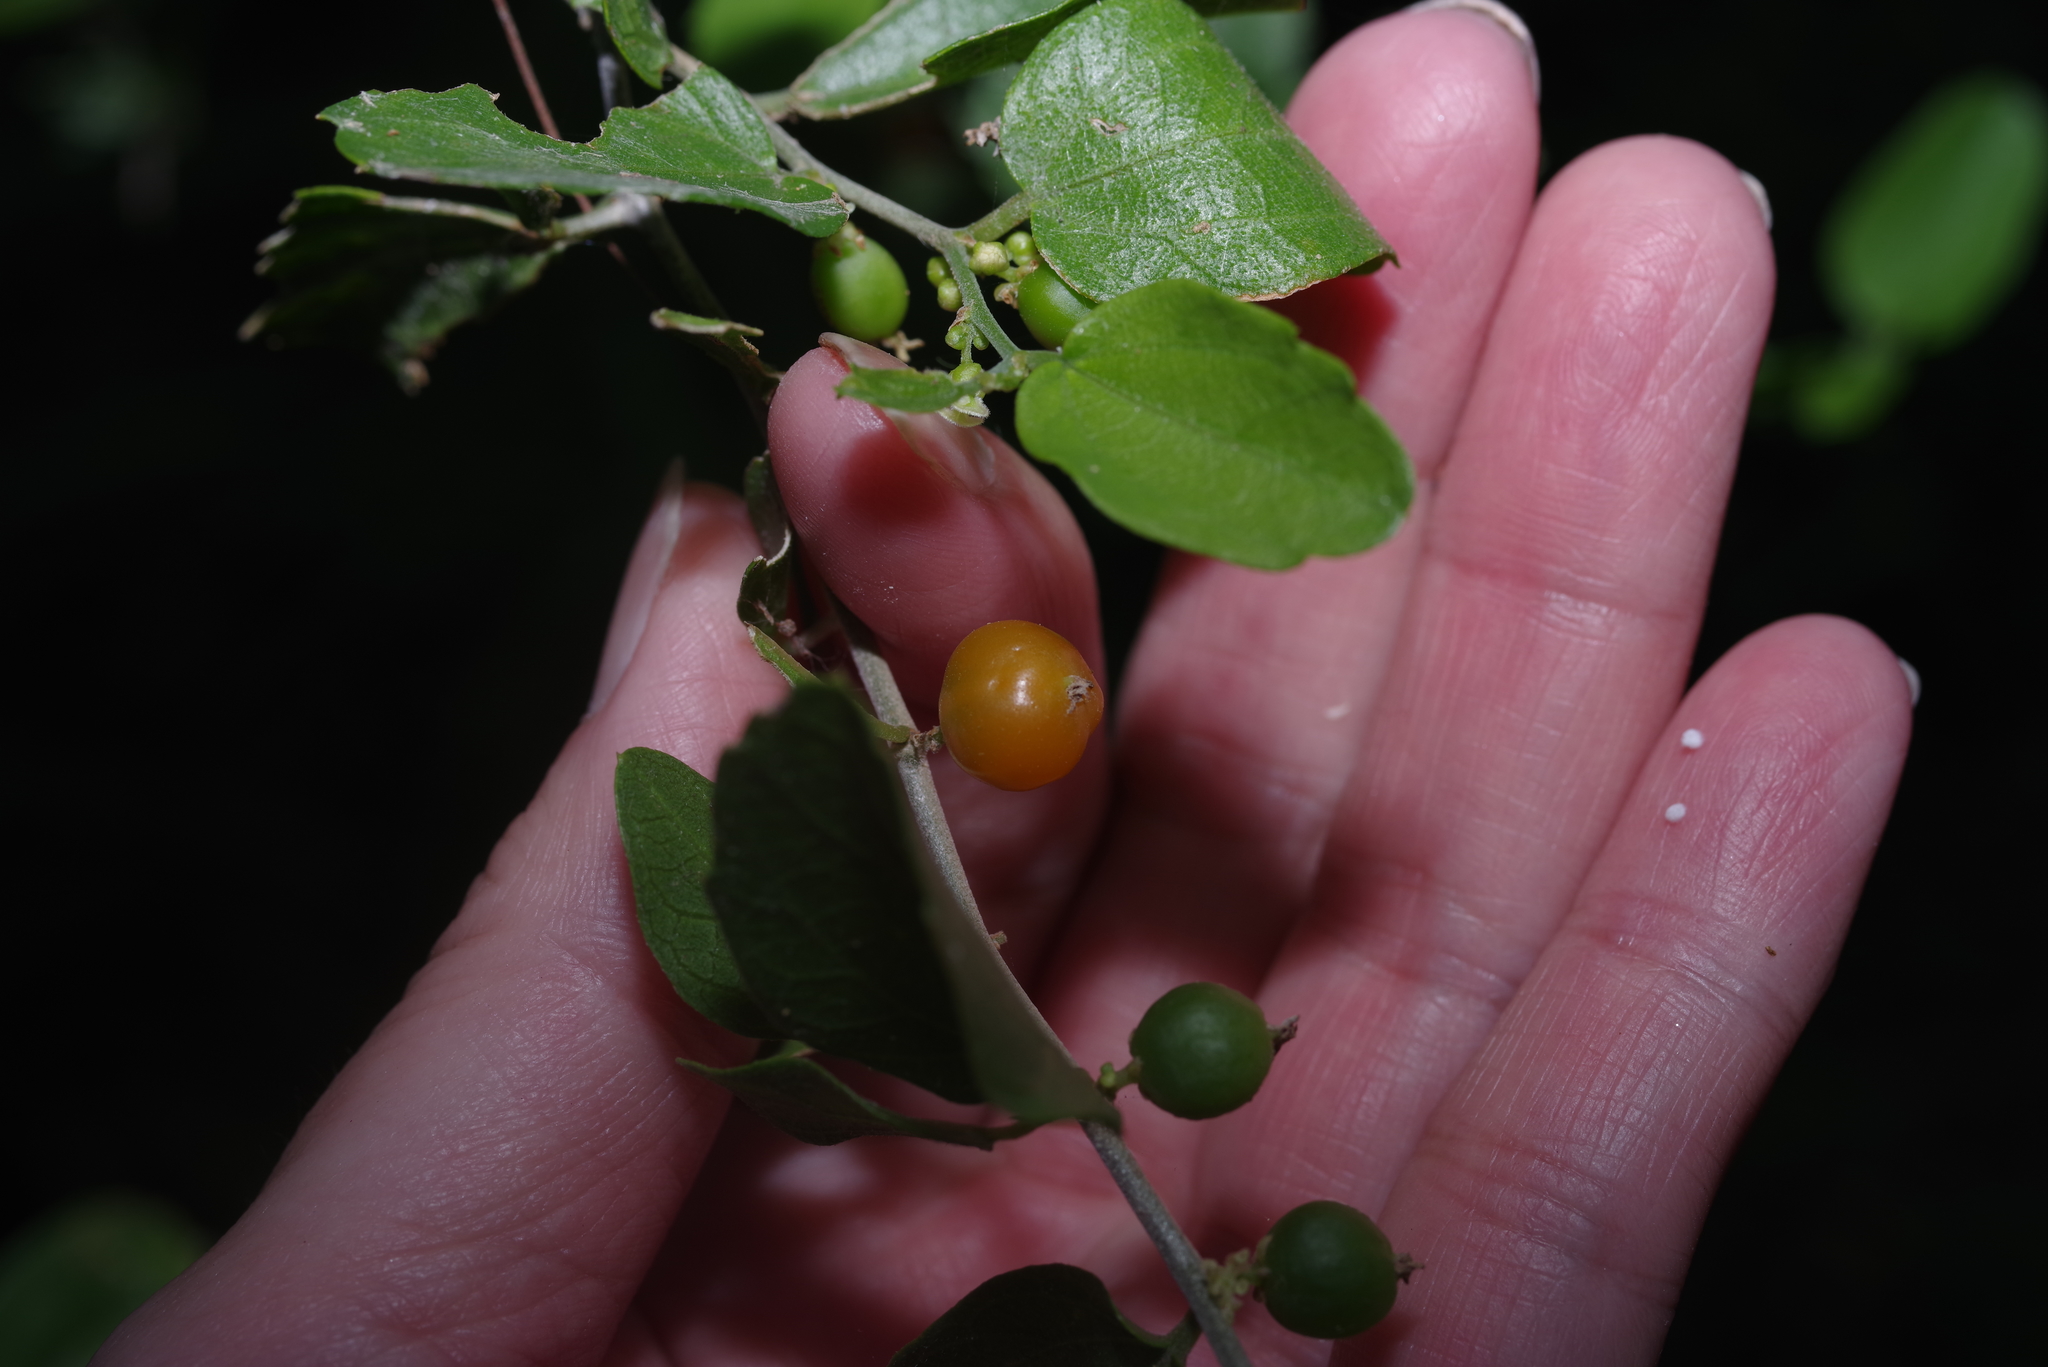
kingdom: Plantae
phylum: Tracheophyta
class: Magnoliopsida
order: Rosales
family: Cannabaceae
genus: Celtis
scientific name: Celtis pallida
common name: Desert hackberry
